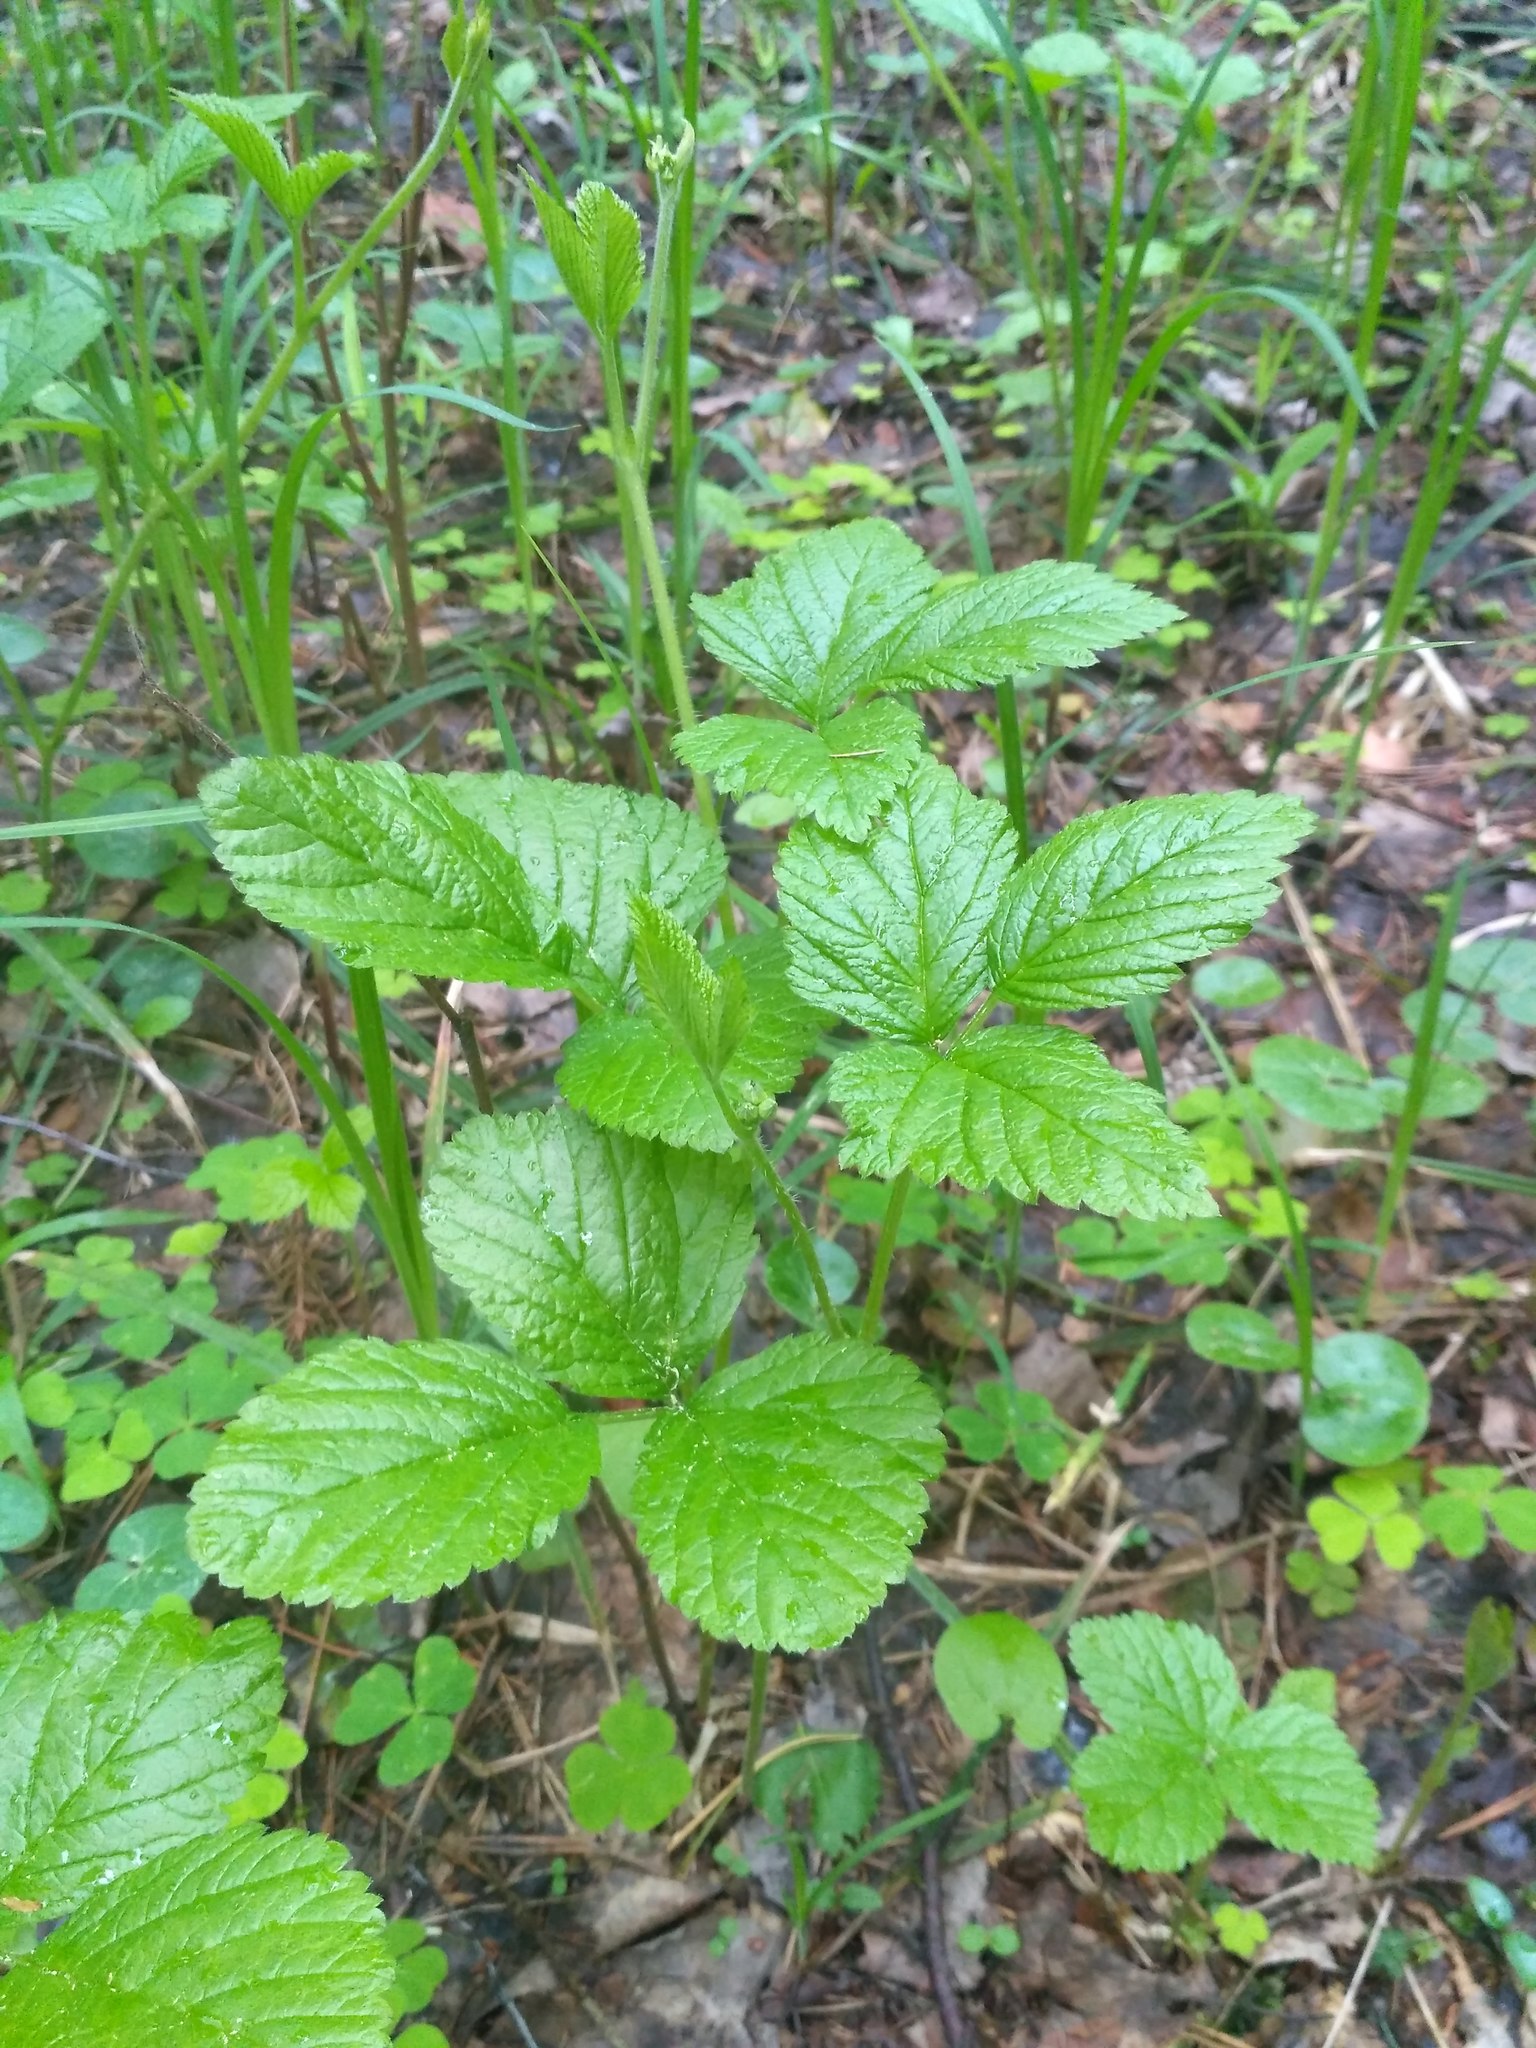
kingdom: Plantae
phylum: Tracheophyta
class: Magnoliopsida
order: Rosales
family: Rosaceae
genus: Rubus
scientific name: Rubus saxatilis
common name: Stone bramble
